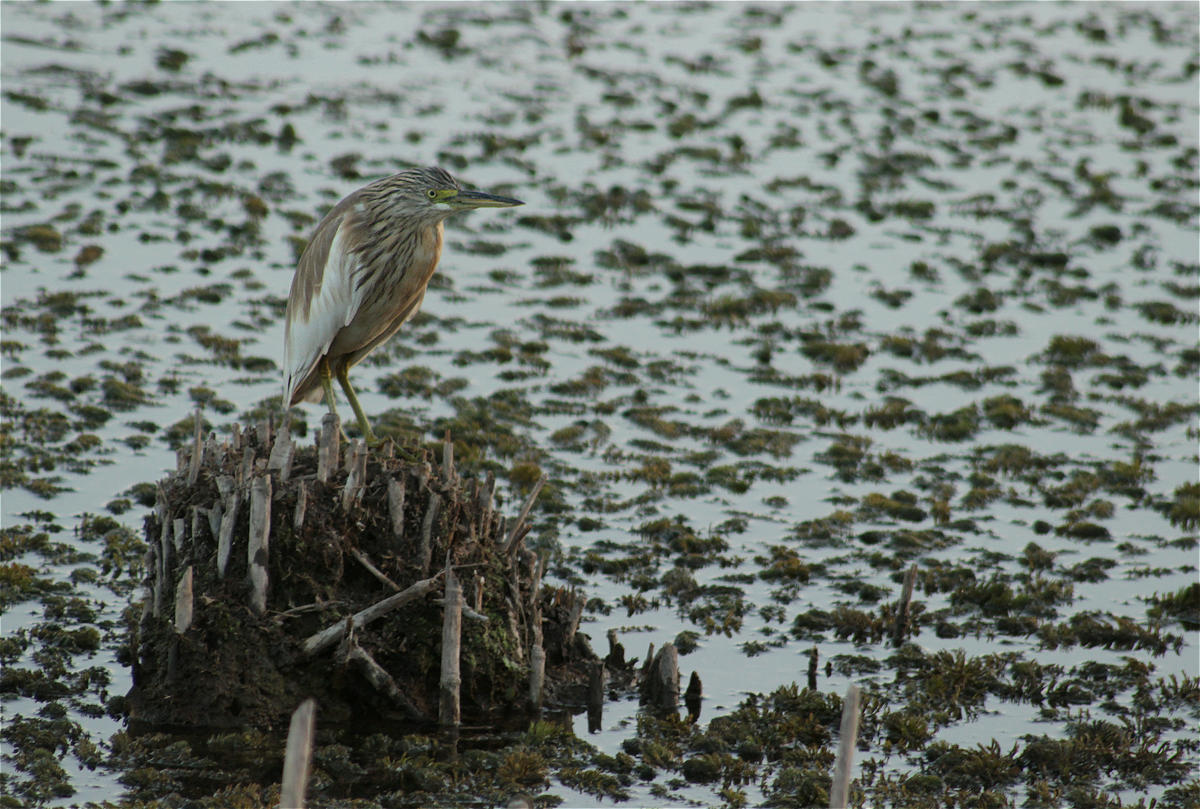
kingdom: Animalia
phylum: Chordata
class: Aves
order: Pelecaniformes
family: Ardeidae
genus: Ardeola
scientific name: Ardeola ralloides
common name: Squacco heron
